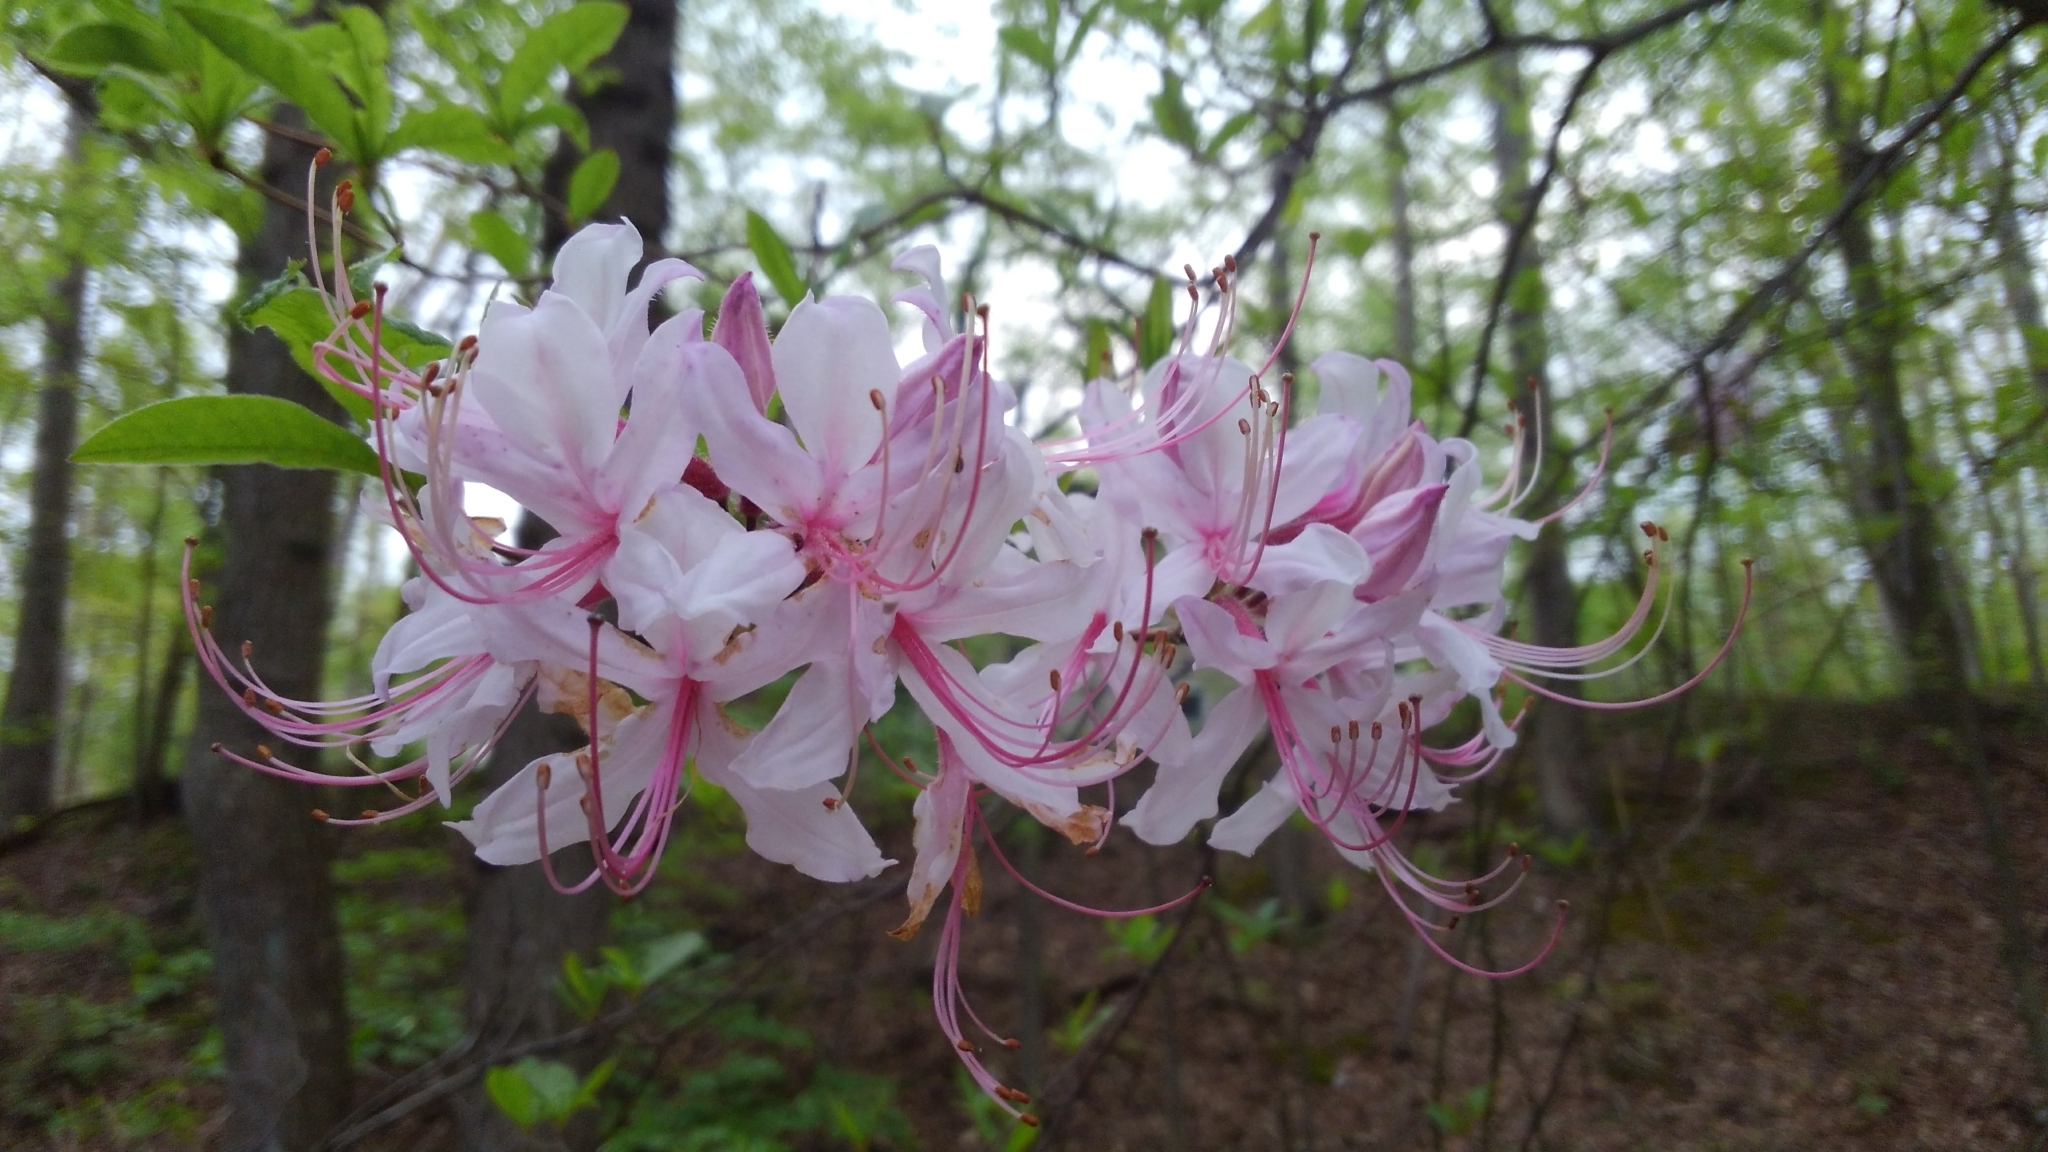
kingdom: Plantae
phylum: Tracheophyta
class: Magnoliopsida
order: Ericales
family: Ericaceae
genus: Rhododendron
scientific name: Rhododendron periclymenoides
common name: Election-pink
